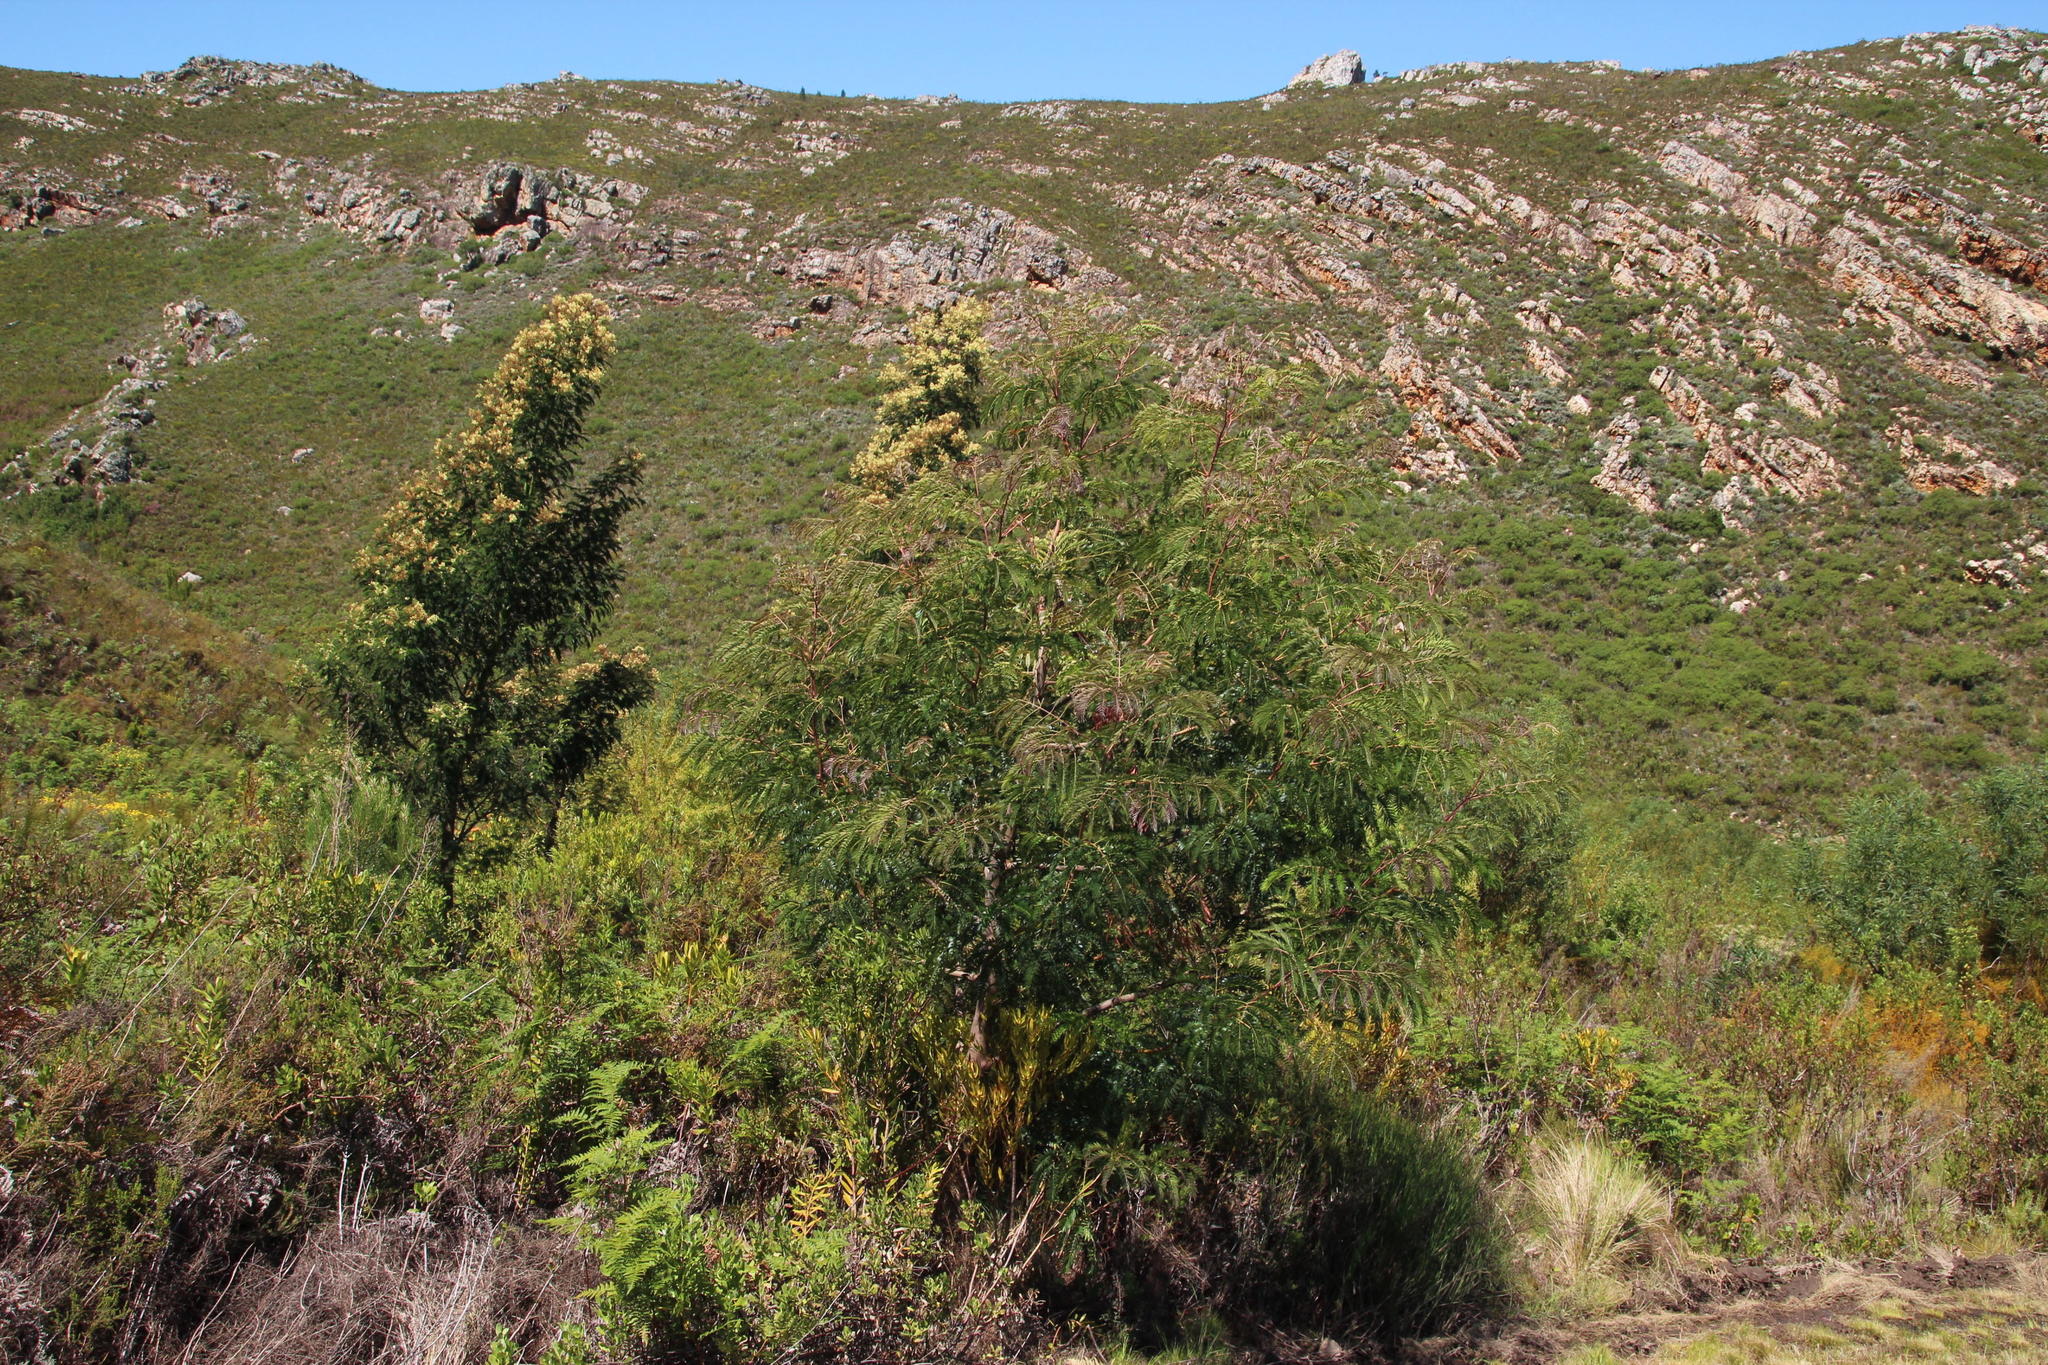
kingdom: Plantae
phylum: Tracheophyta
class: Magnoliopsida
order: Fabales
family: Fabaceae
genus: Acacia
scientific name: Acacia elata
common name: Cedar wattle
